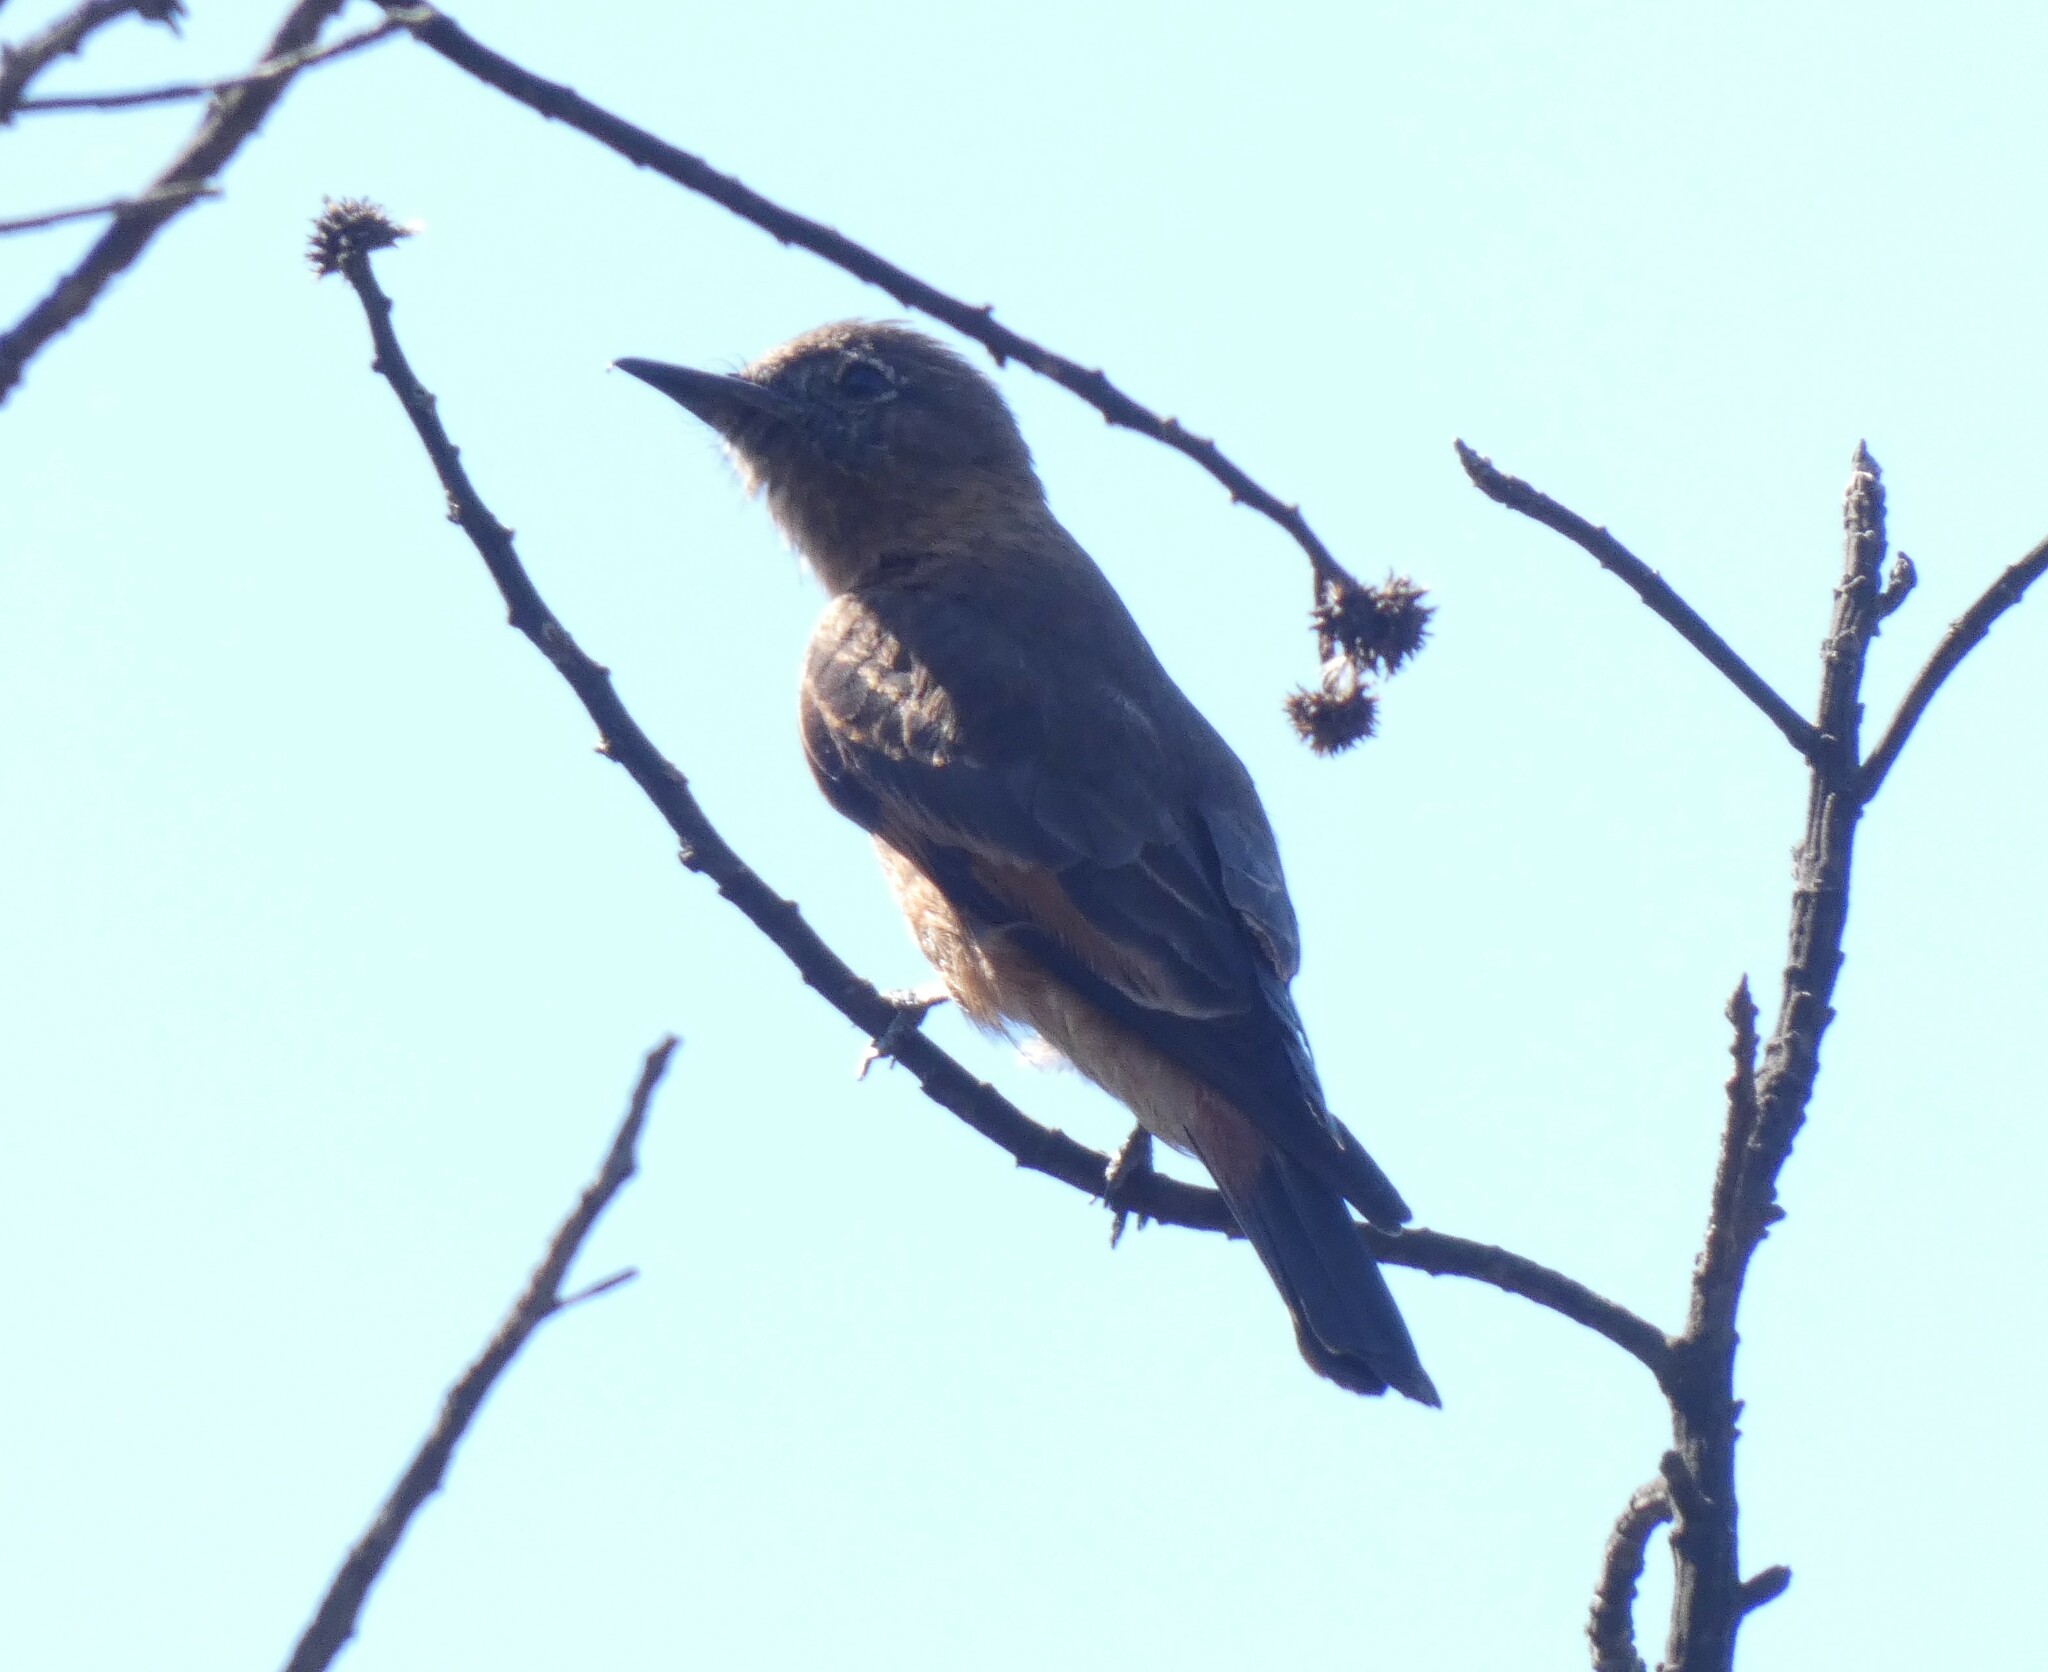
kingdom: Animalia
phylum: Chordata
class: Aves
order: Passeriformes
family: Tyrannidae
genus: Hirundinea
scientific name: Hirundinea ferruginea
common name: Cliff flycatcher
